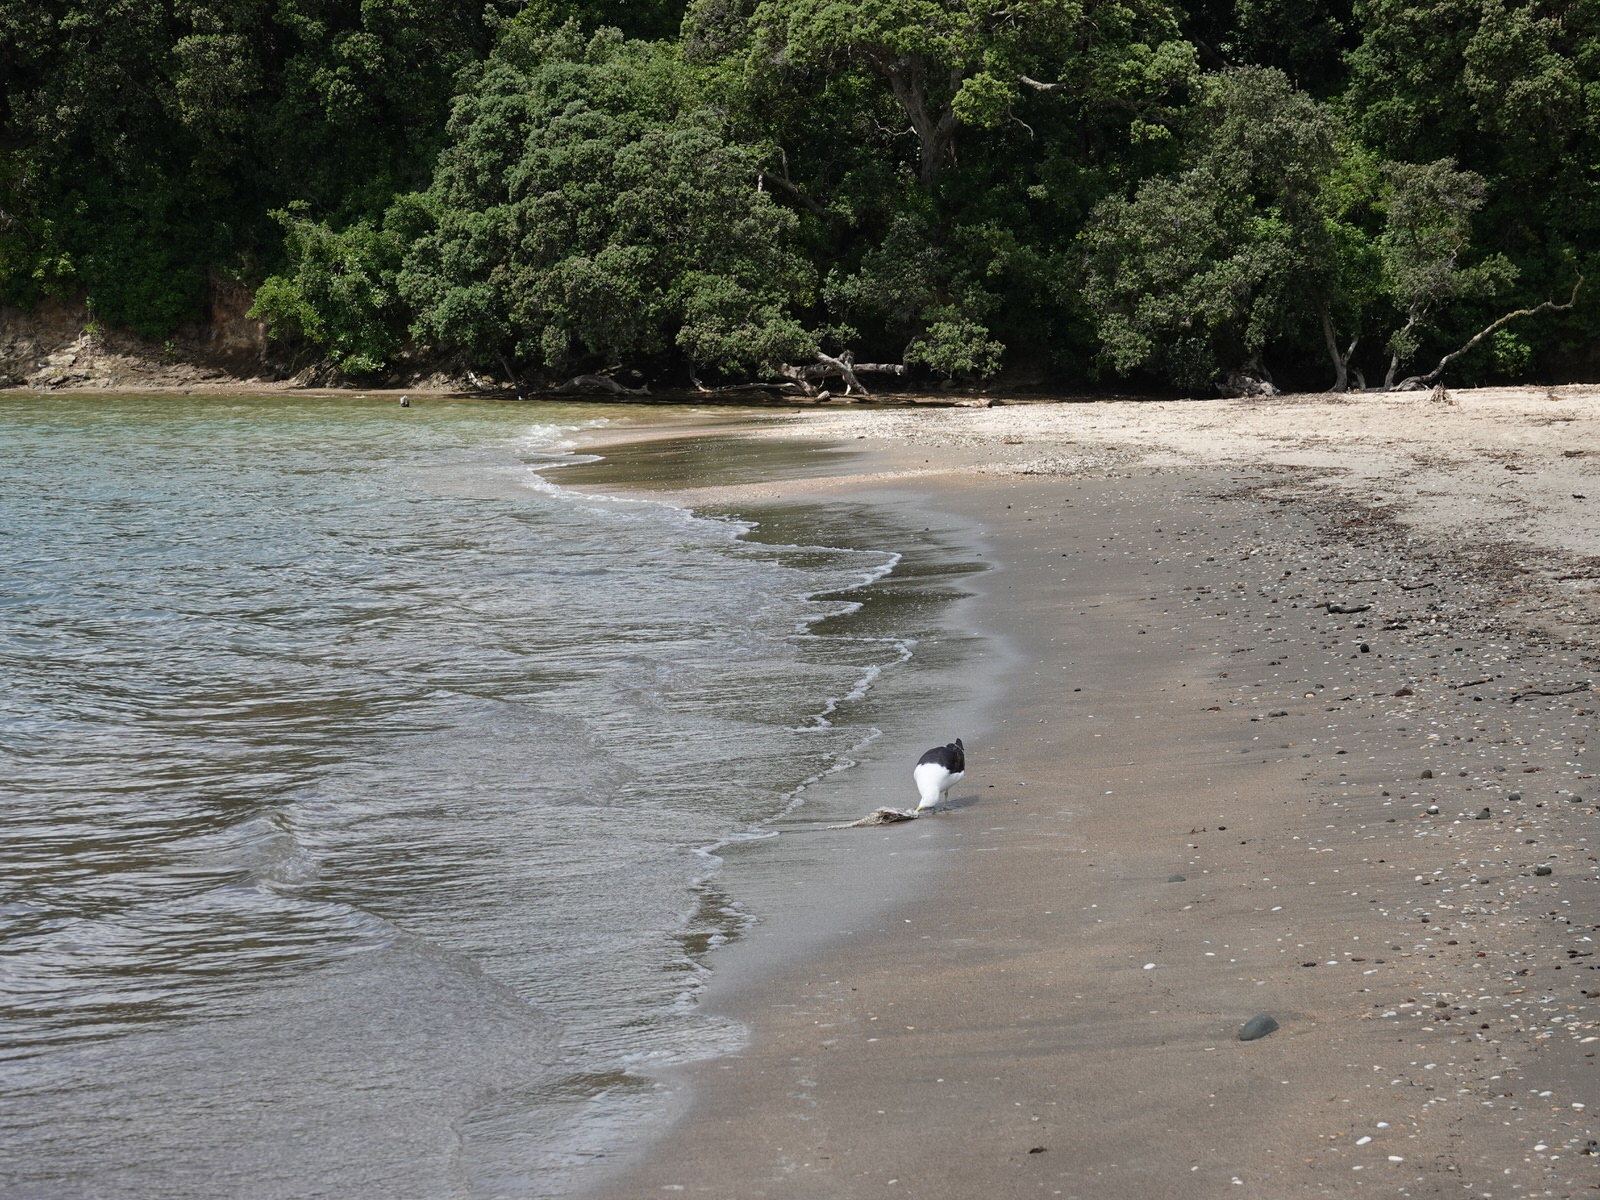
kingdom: Animalia
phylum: Chordata
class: Aves
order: Charadriiformes
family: Laridae
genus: Larus
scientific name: Larus dominicanus
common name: Kelp gull
